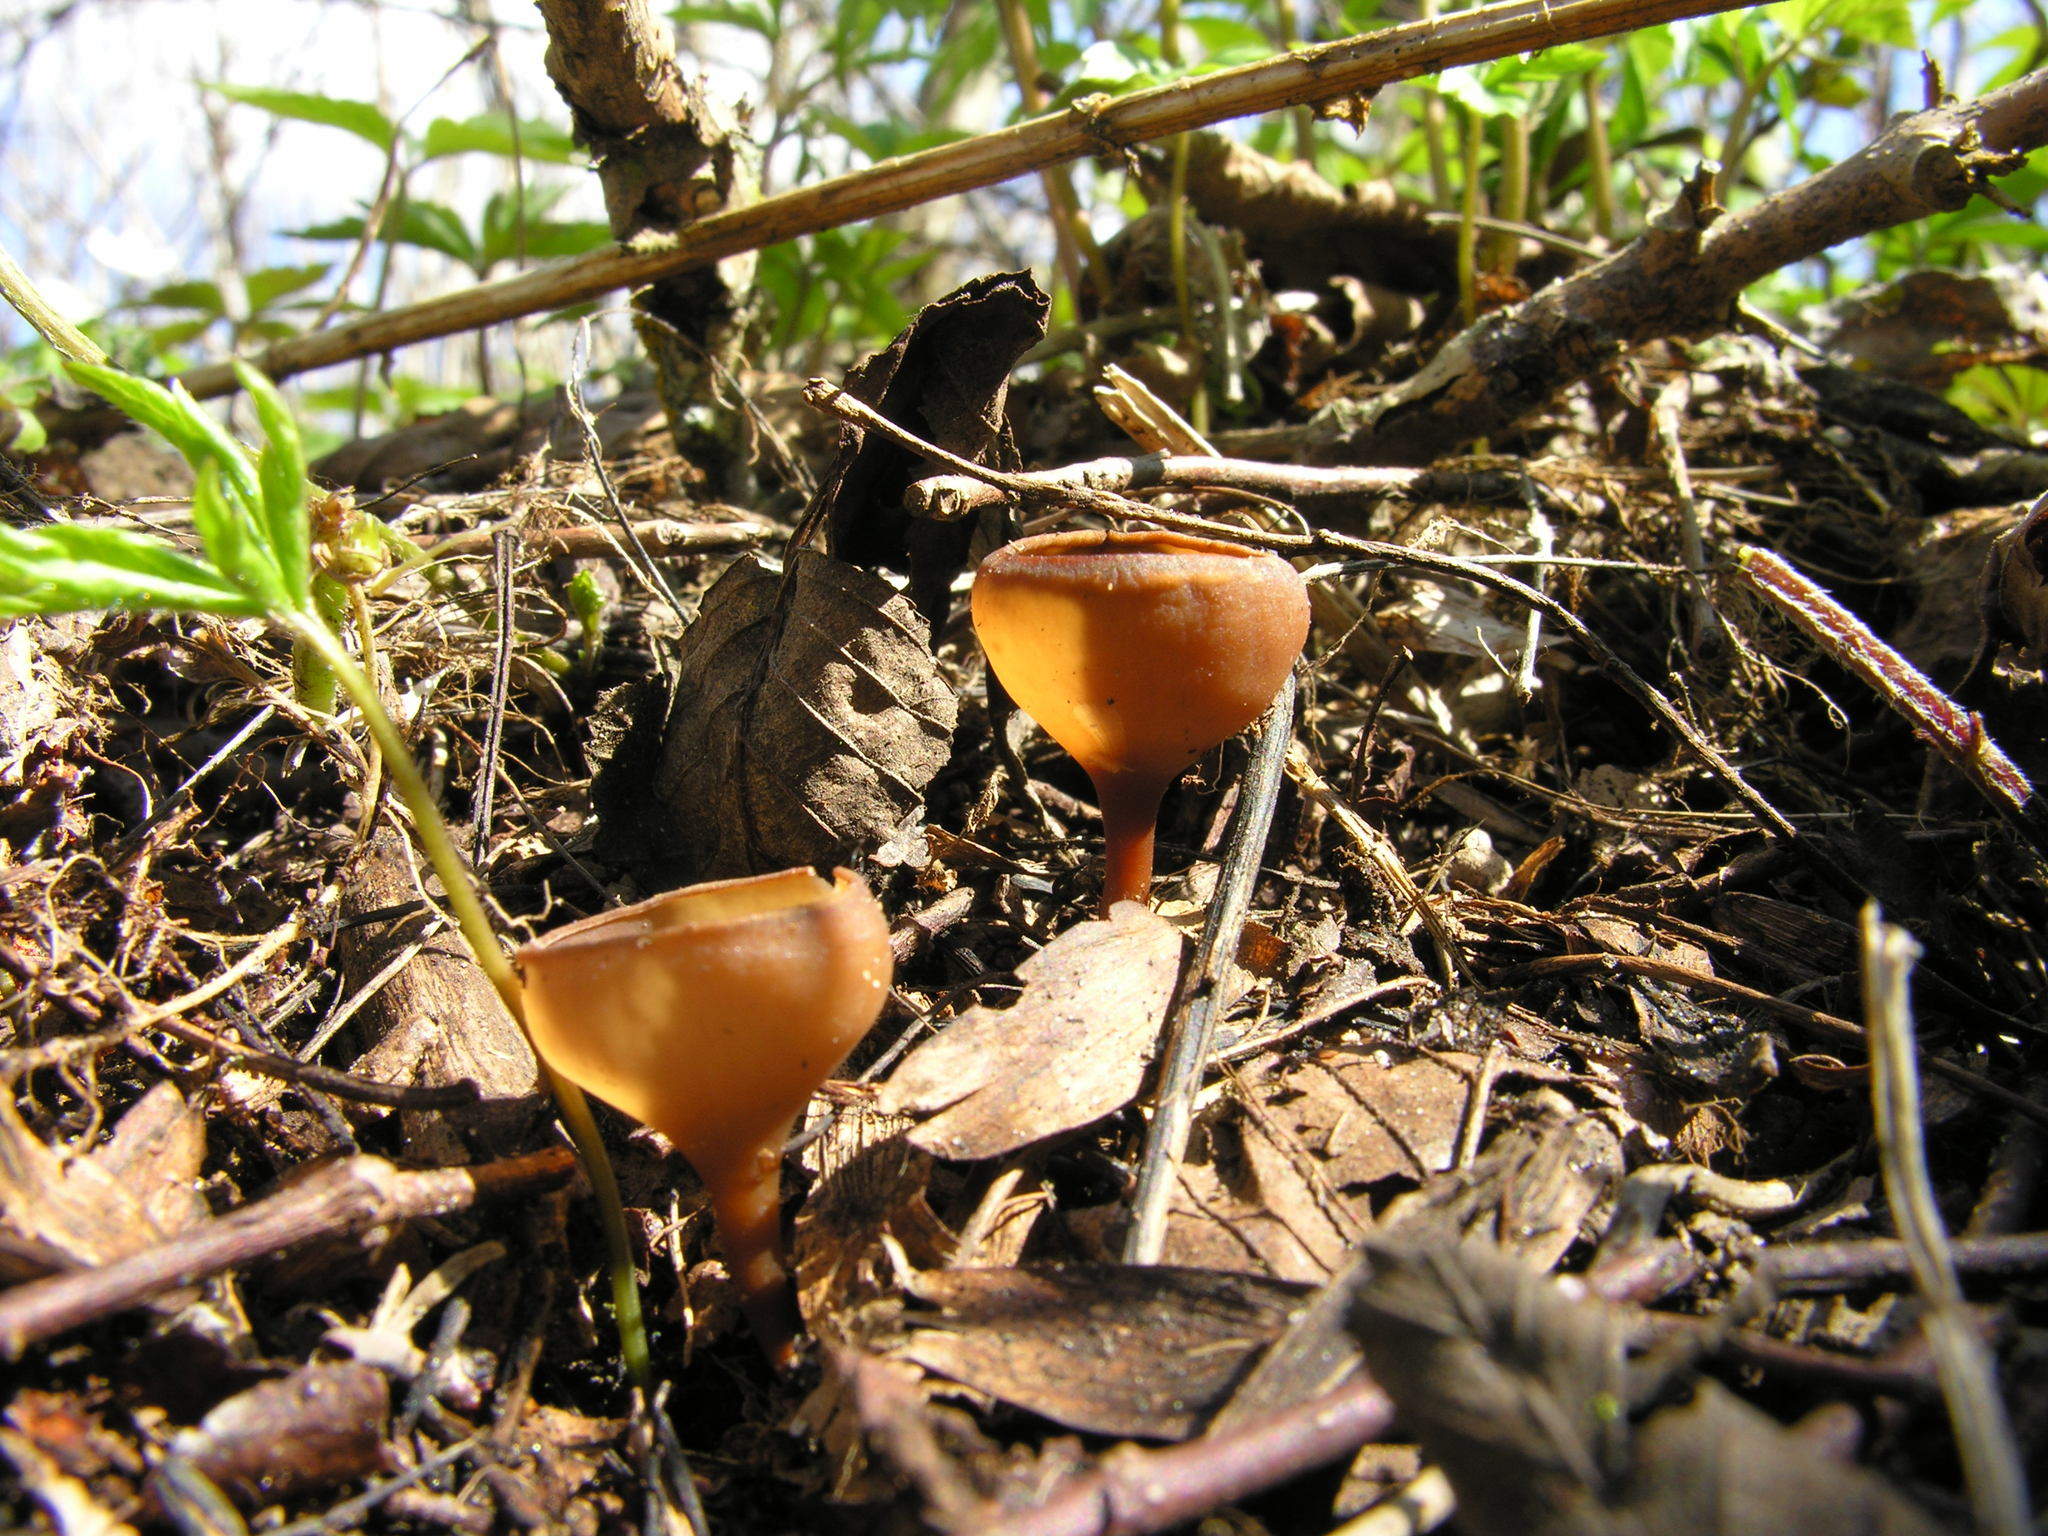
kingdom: Fungi
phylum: Ascomycota
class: Leotiomycetes
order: Helotiales
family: Sclerotiniaceae
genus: Dumontinia
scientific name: Dumontinia tuberosa
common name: Anemone cup
